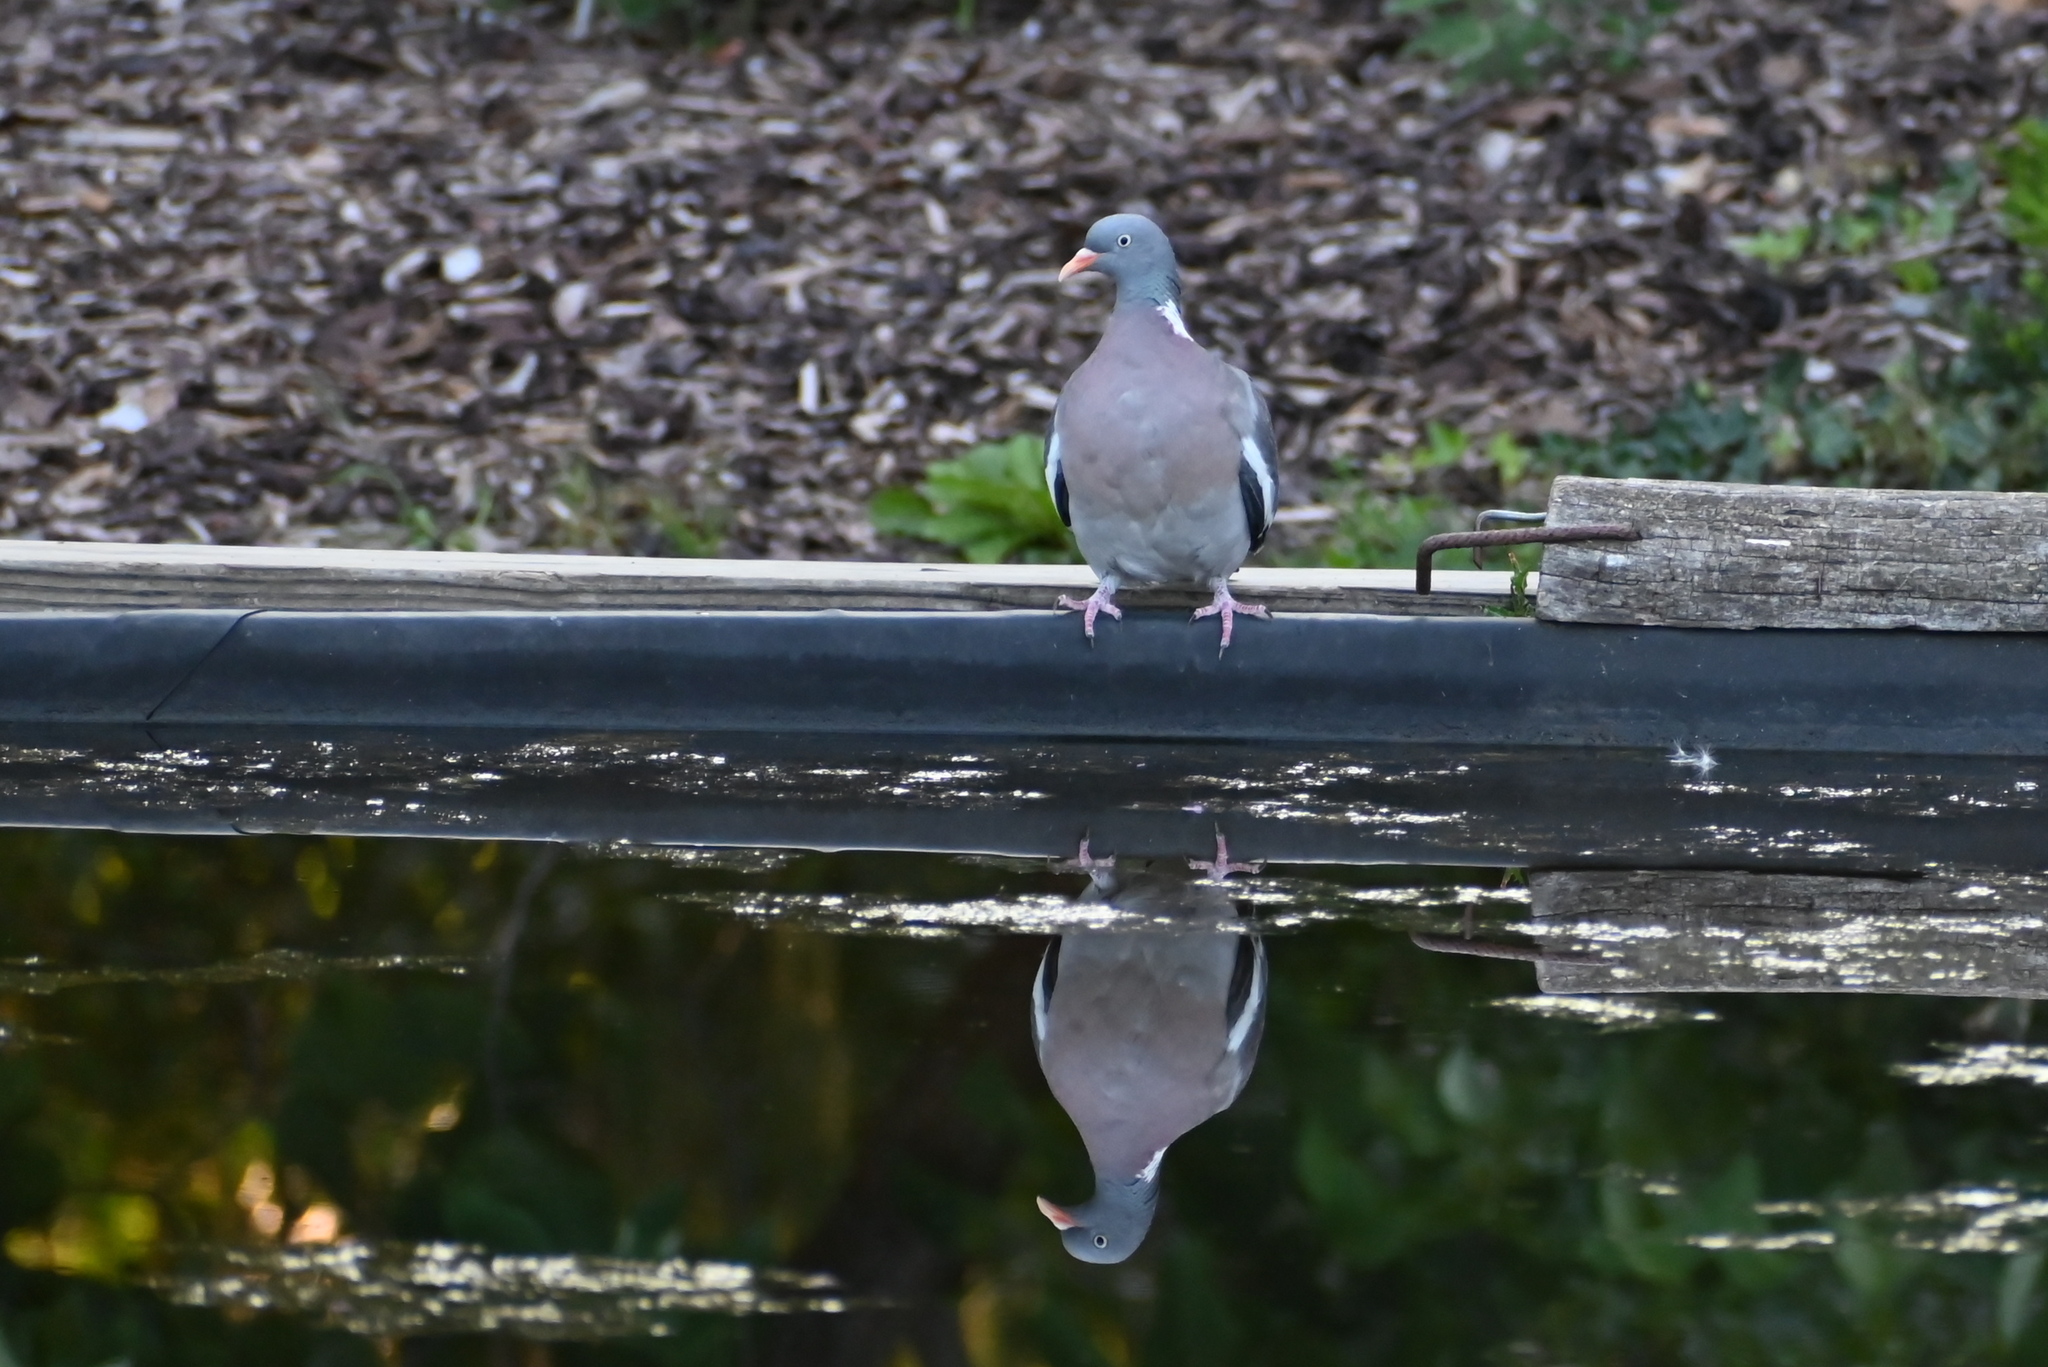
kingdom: Animalia
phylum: Chordata
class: Aves
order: Columbiformes
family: Columbidae
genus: Columba
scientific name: Columba palumbus
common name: Common wood pigeon
